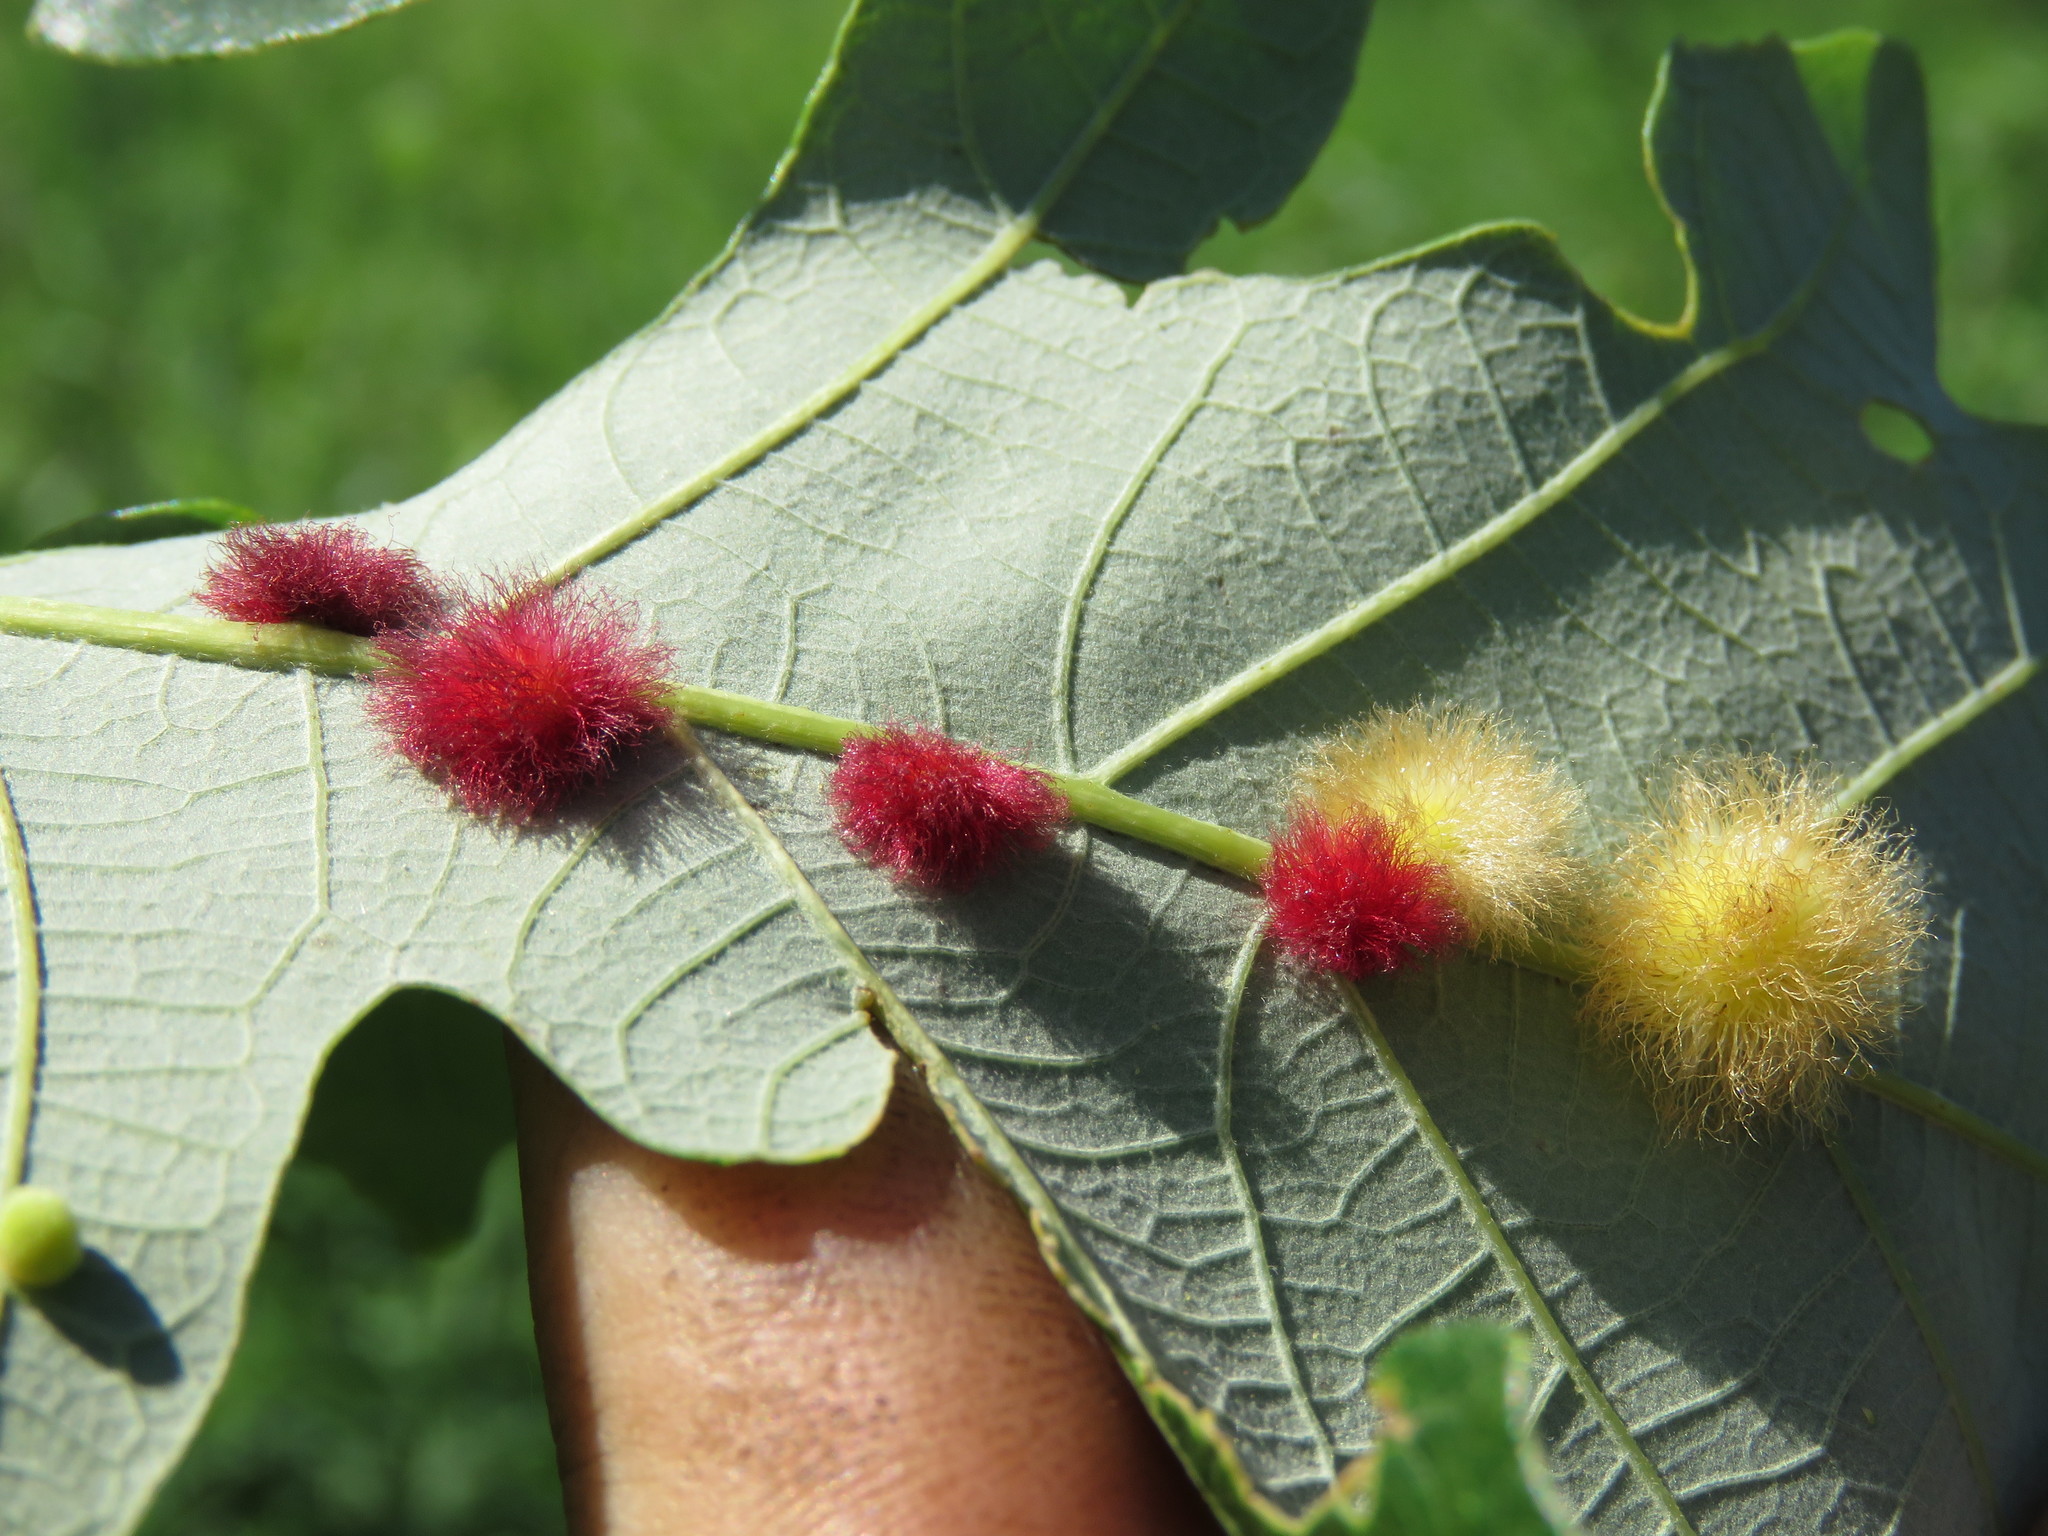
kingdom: Animalia
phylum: Arthropoda
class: Insecta
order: Hymenoptera
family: Cynipidae
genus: Andricus
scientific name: Andricus Druon ignotum
